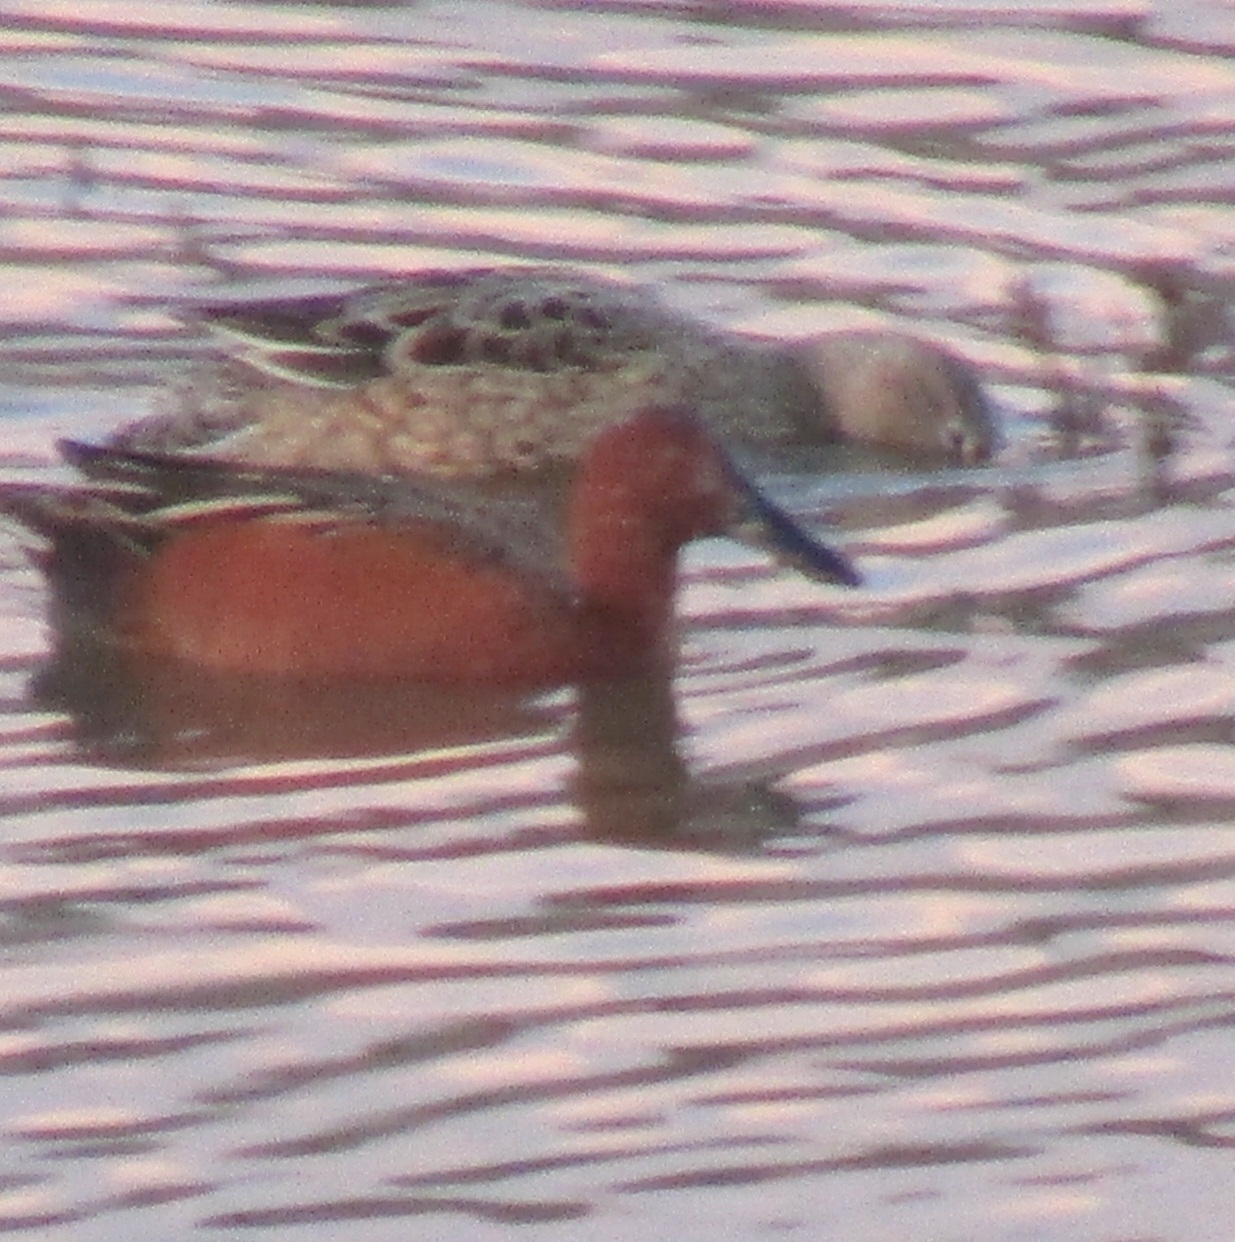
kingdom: Animalia
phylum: Chordata
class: Aves
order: Anseriformes
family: Anatidae
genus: Spatula
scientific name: Spatula cyanoptera
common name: Cinnamon teal
